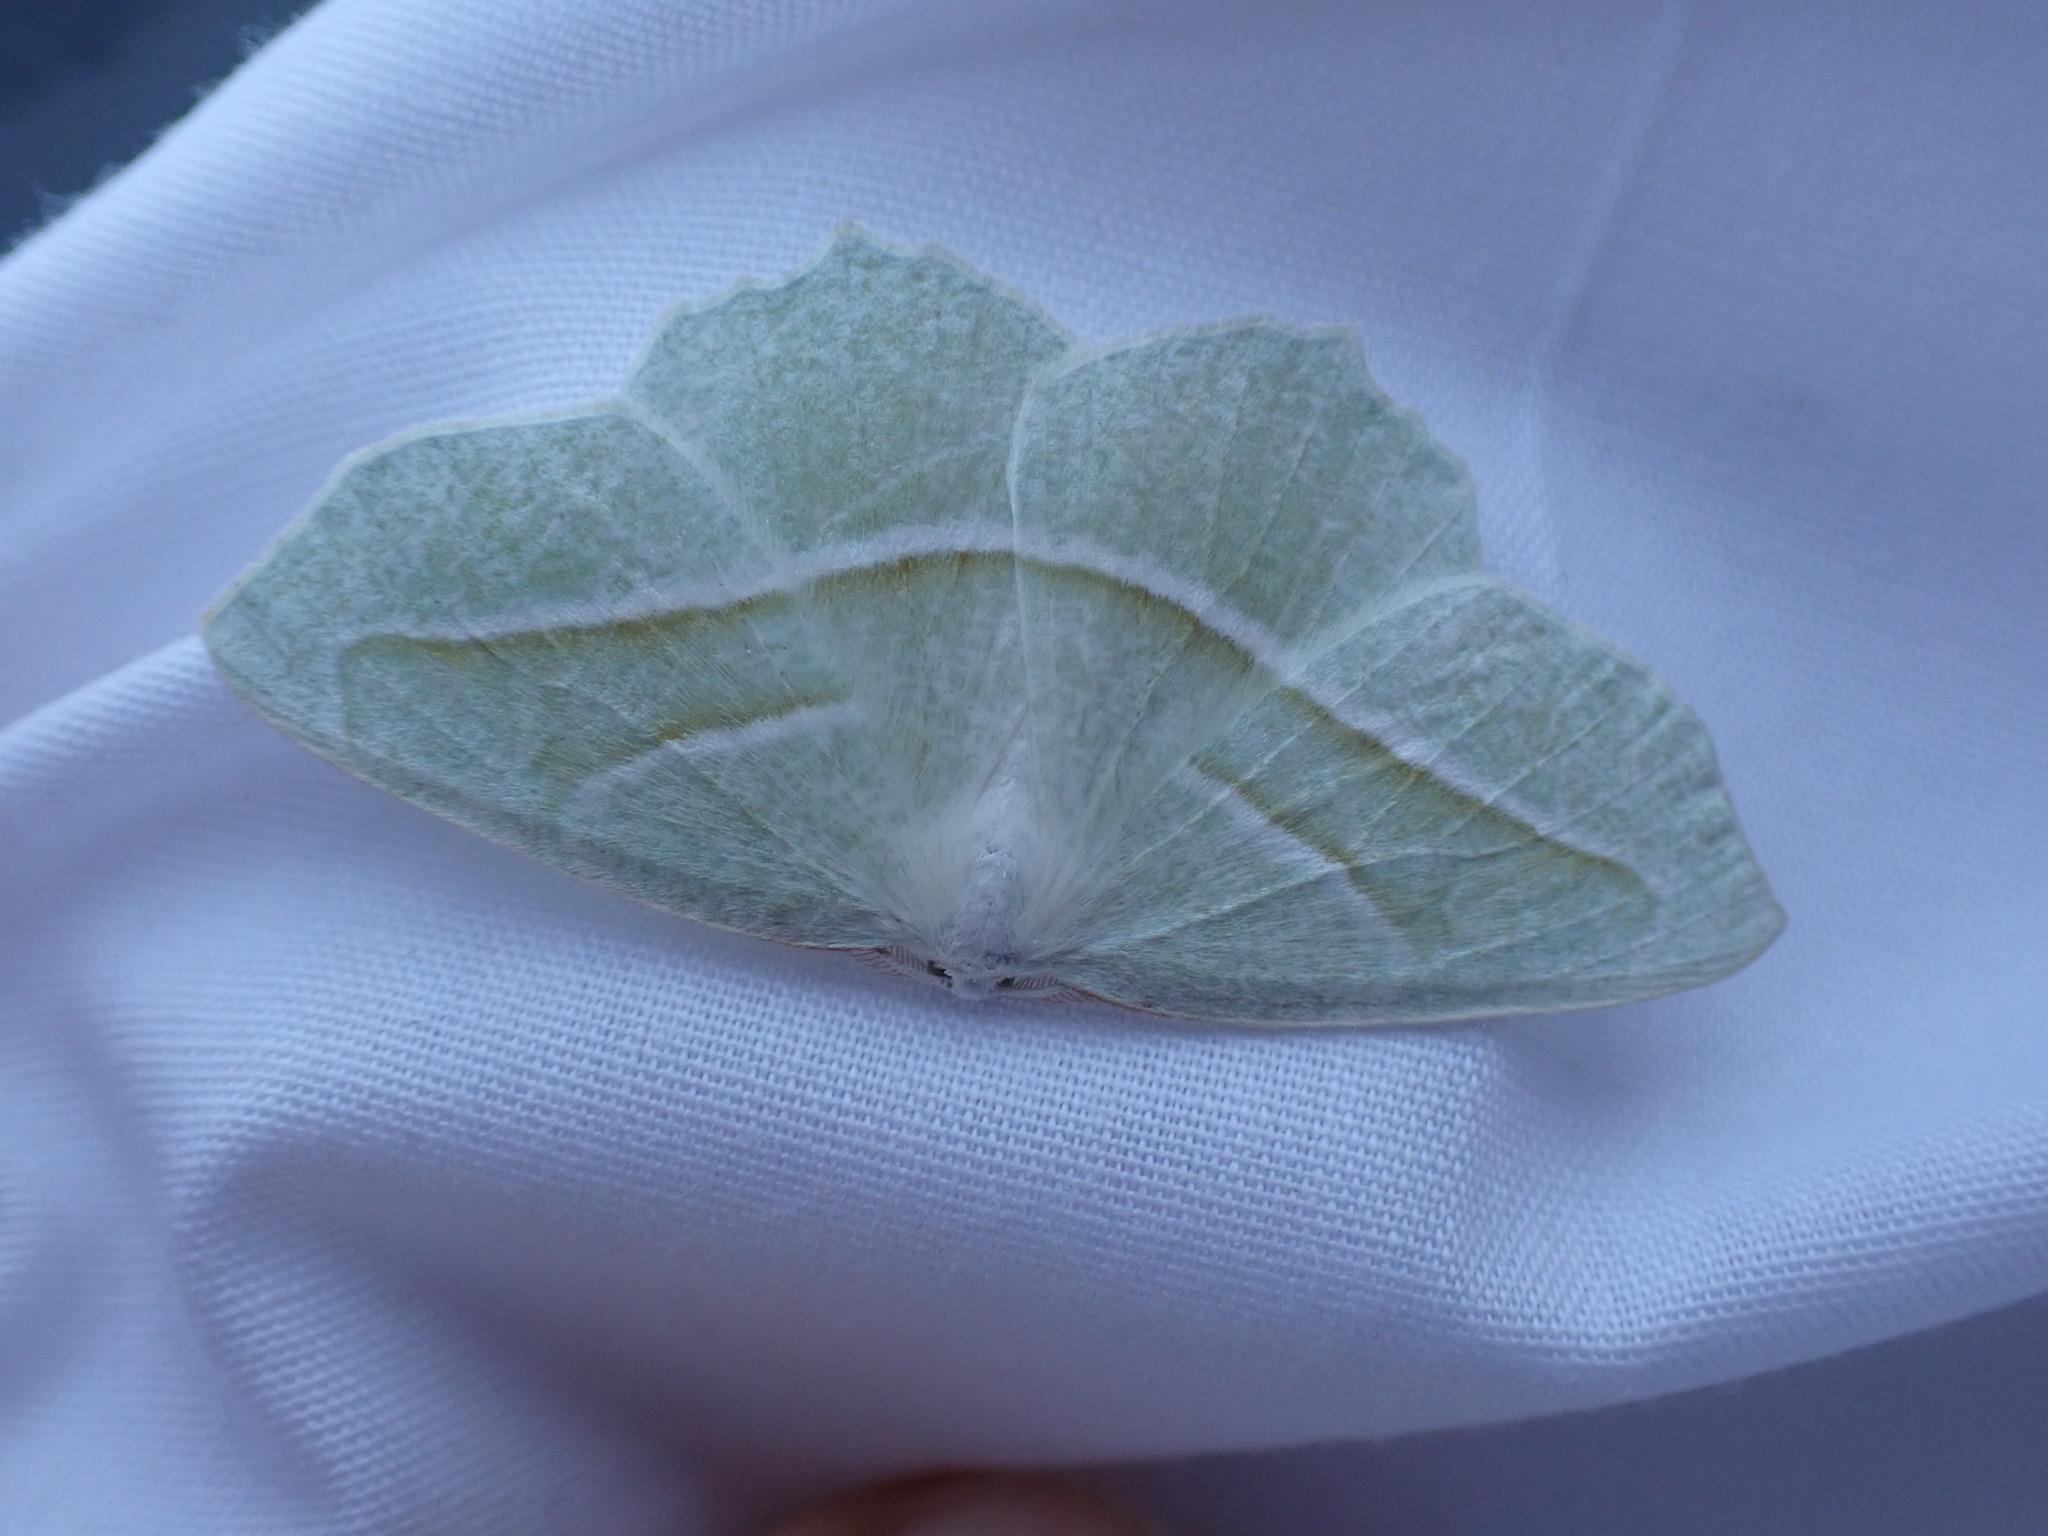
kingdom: Animalia
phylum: Arthropoda
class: Insecta
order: Lepidoptera
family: Geometridae
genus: Campaea
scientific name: Campaea perlata
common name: Fringed looper
